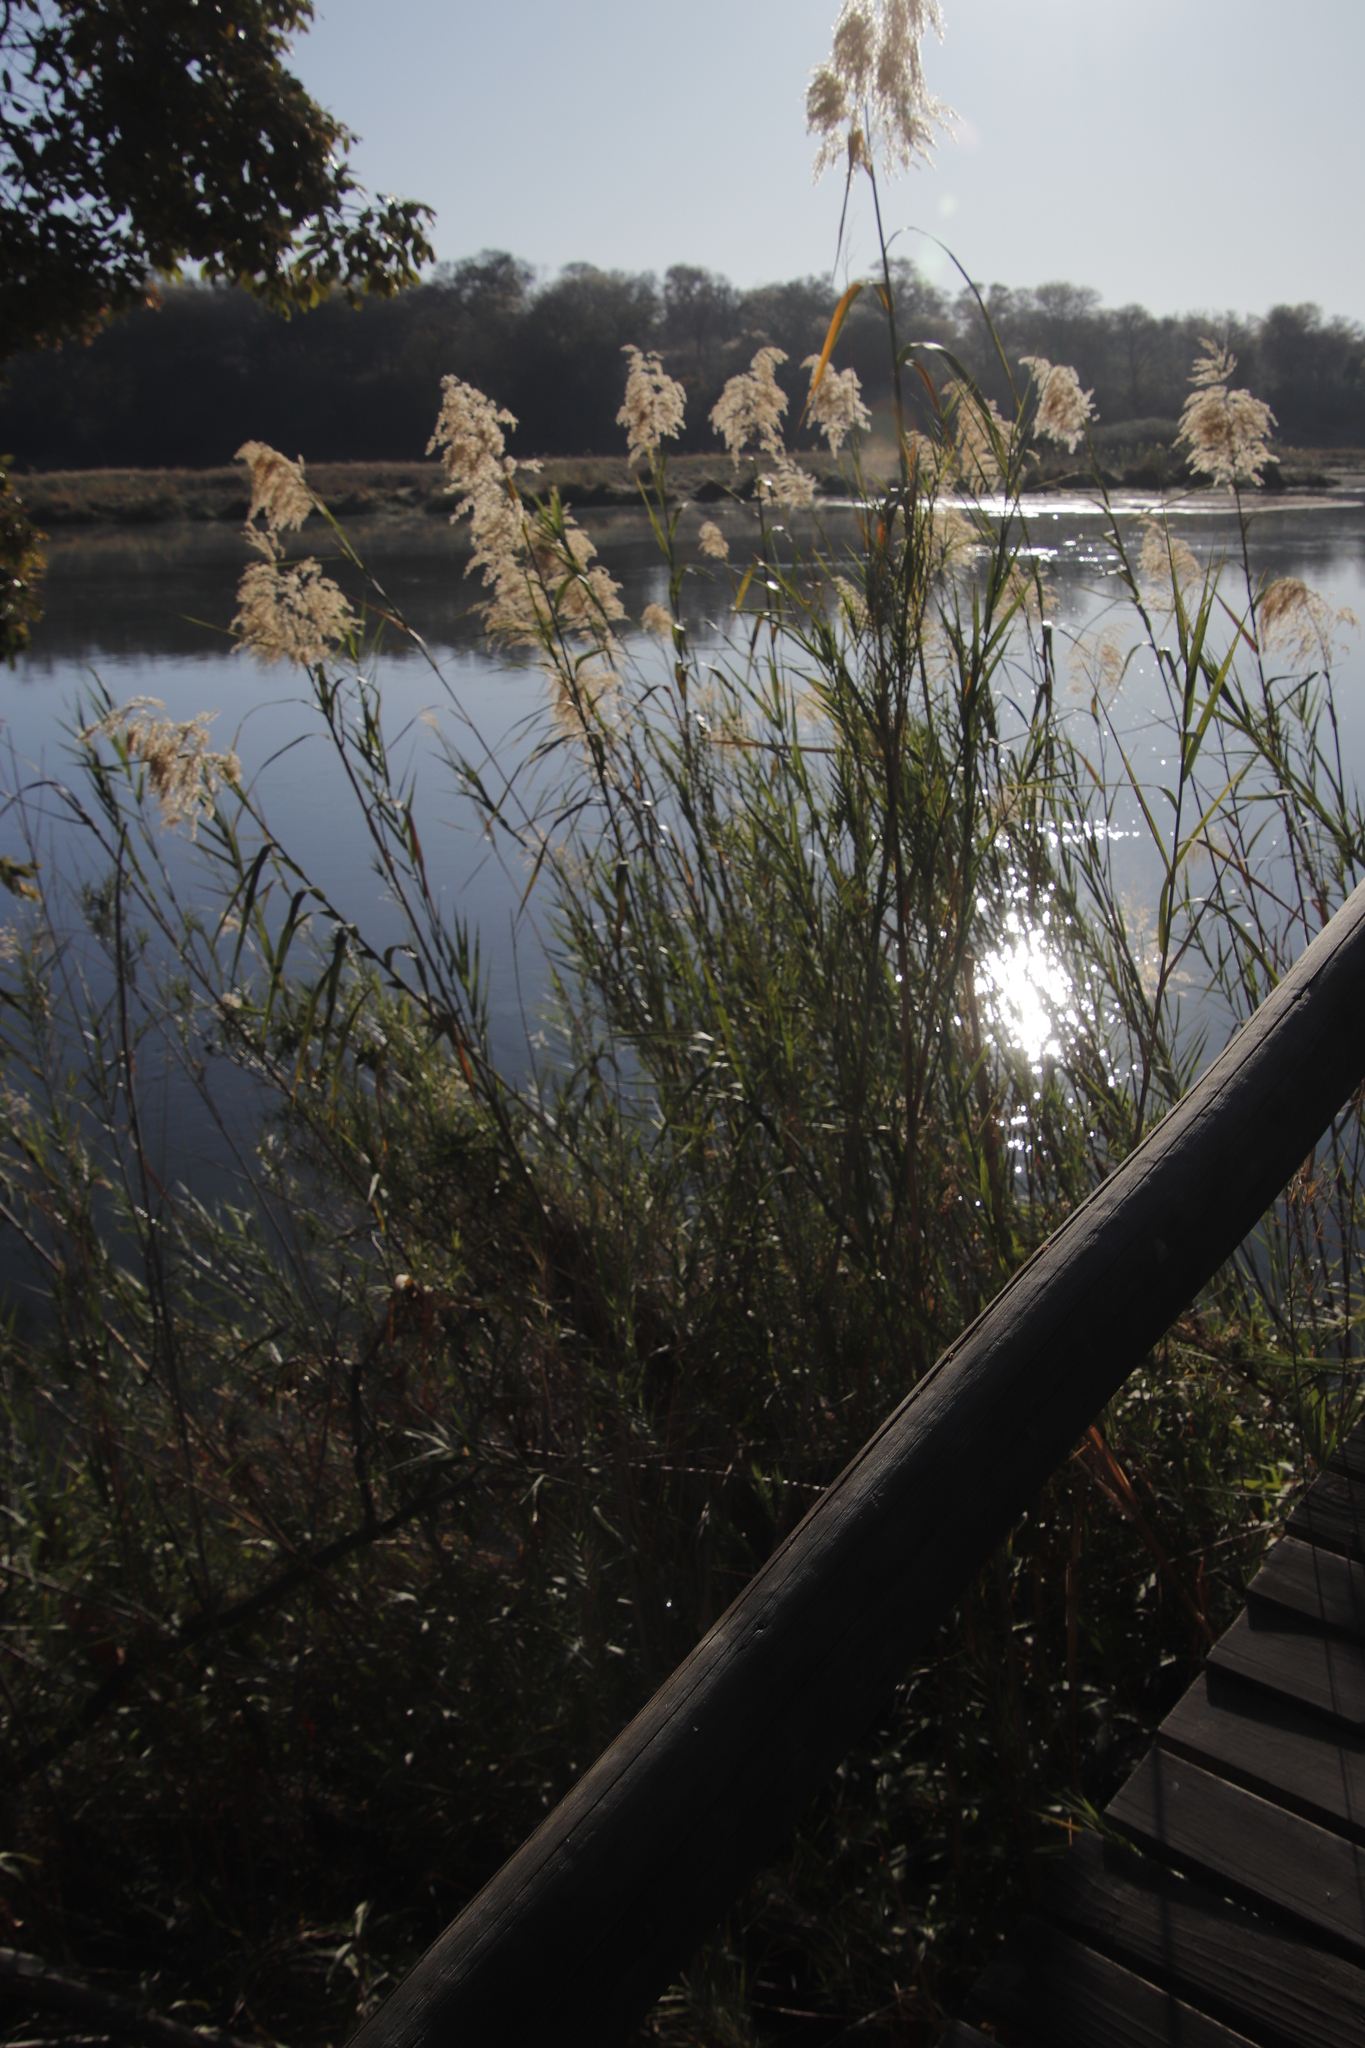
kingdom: Plantae
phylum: Tracheophyta
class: Liliopsida
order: Poales
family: Poaceae
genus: Phragmites
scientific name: Phragmites australis
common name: Common reed
